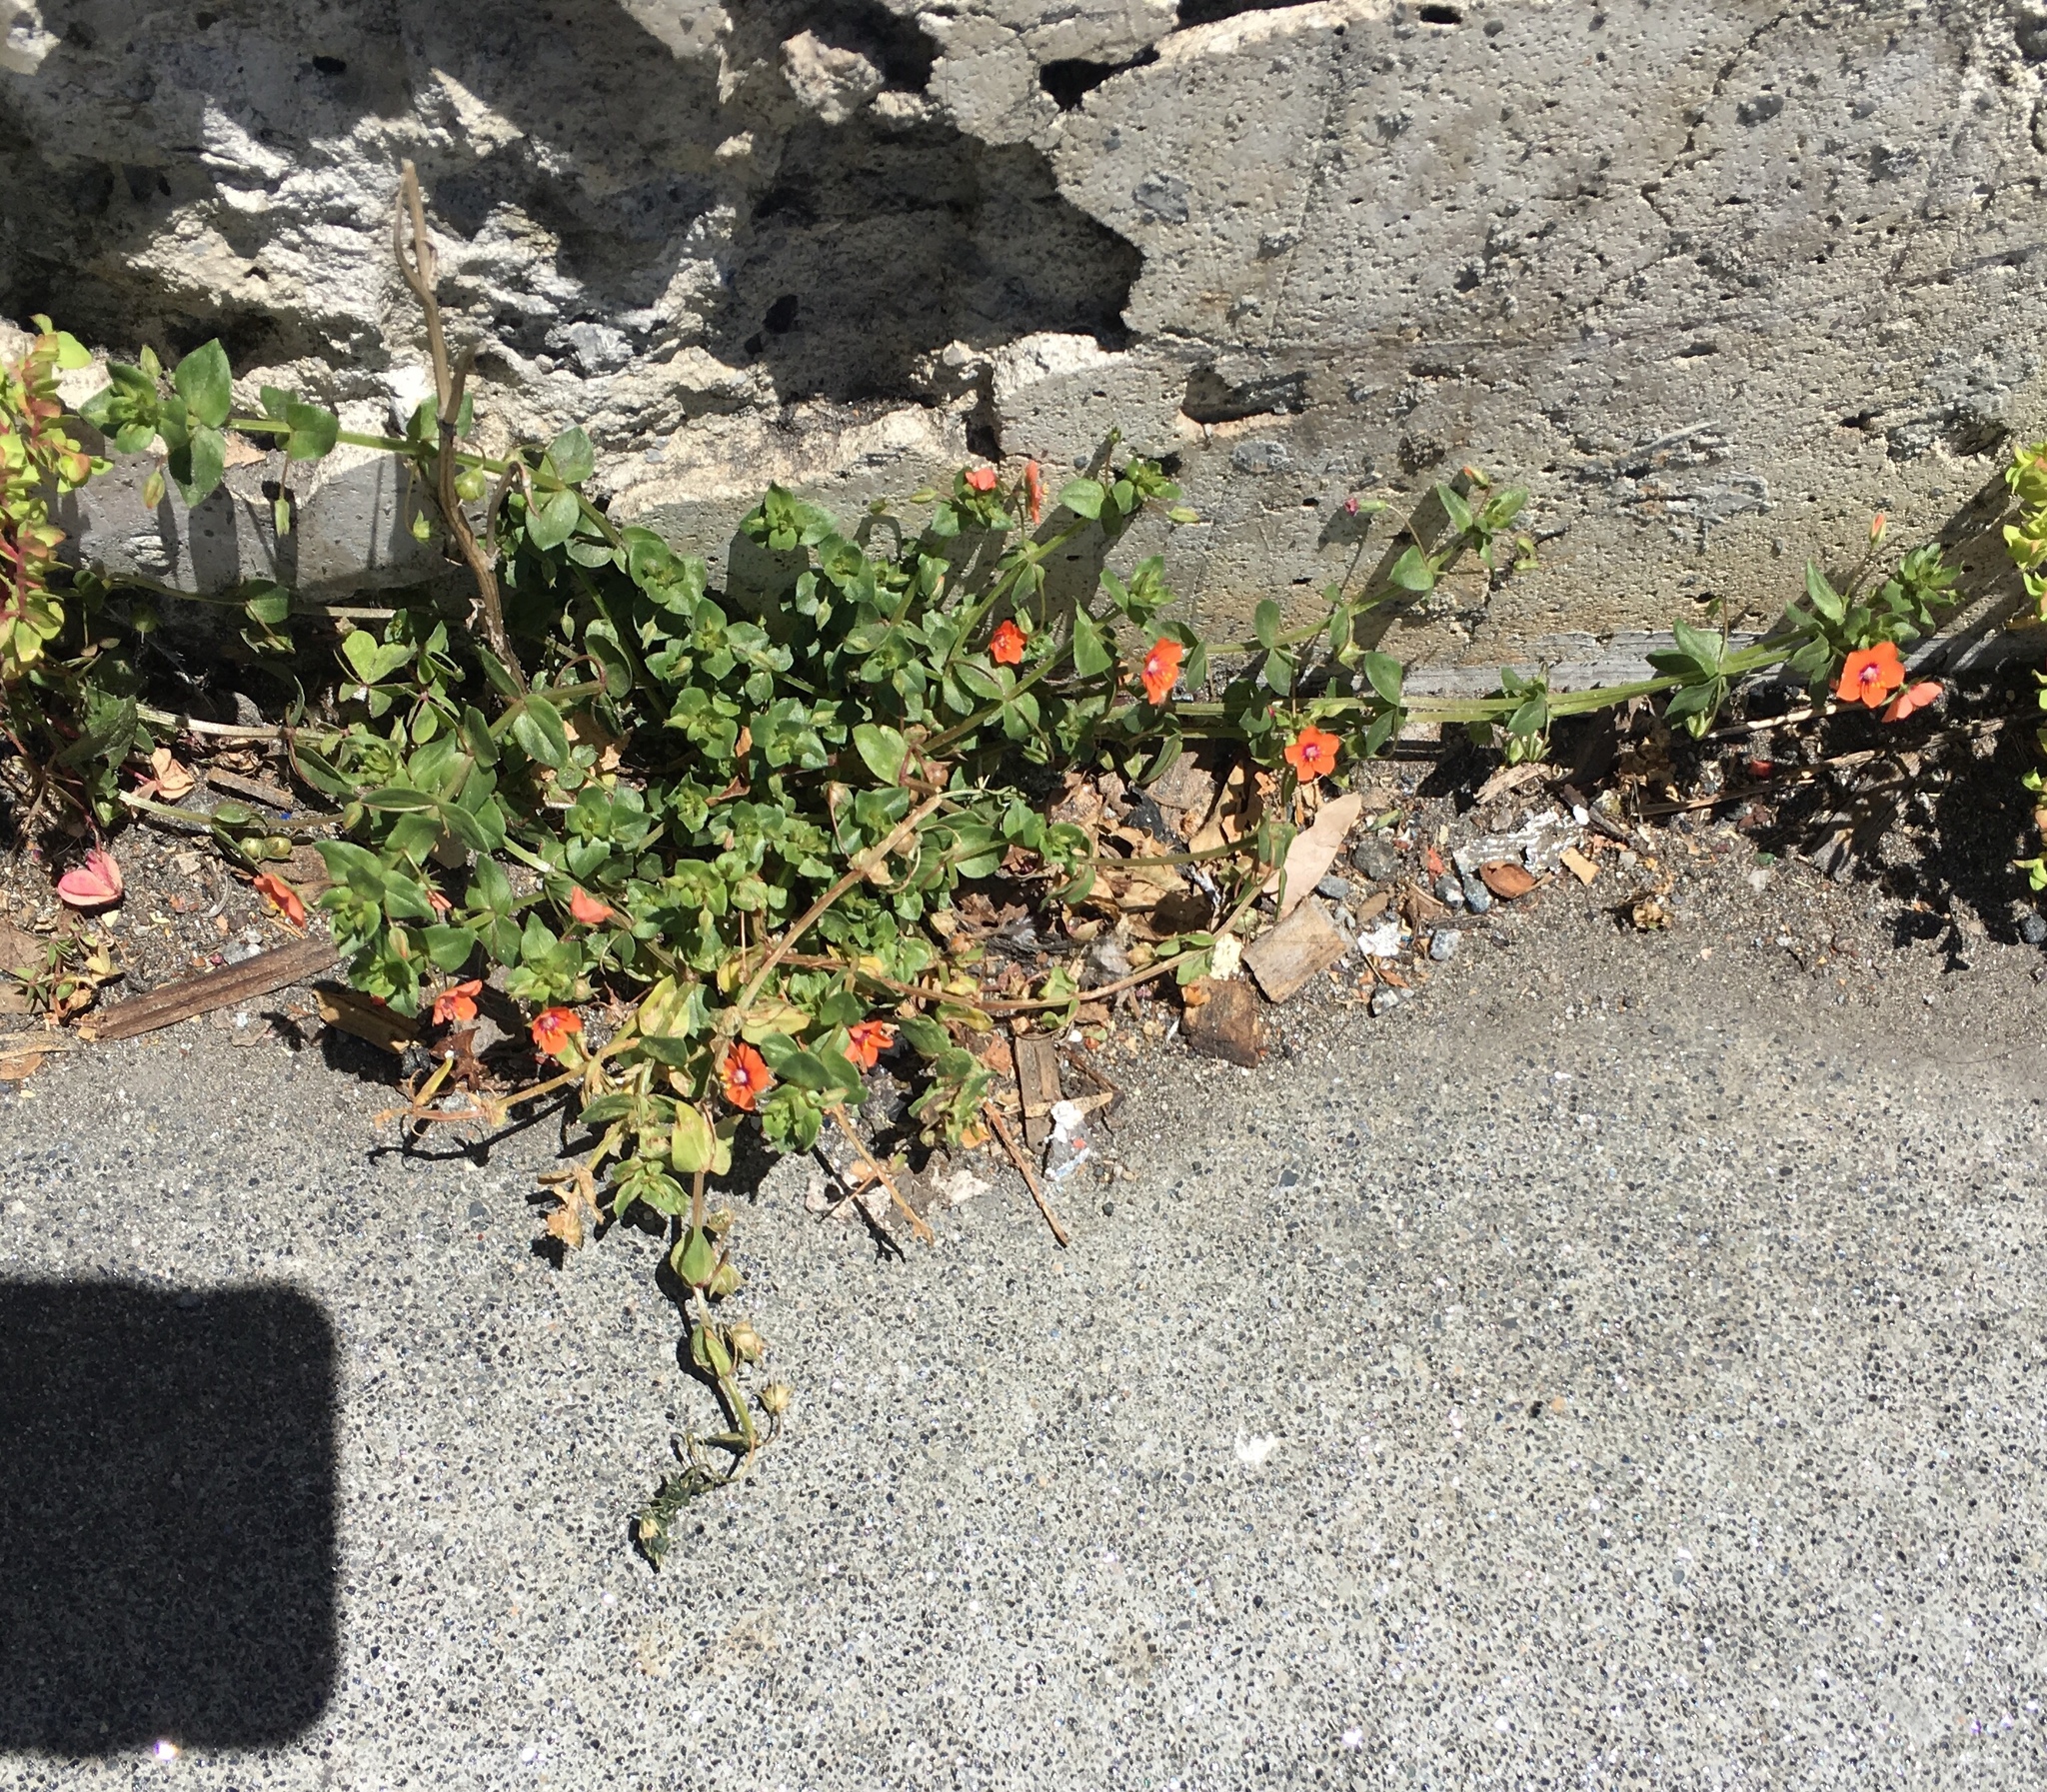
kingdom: Plantae
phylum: Tracheophyta
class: Magnoliopsida
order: Ericales
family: Primulaceae
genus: Lysimachia
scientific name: Lysimachia arvensis
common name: Scarlet pimpernel
